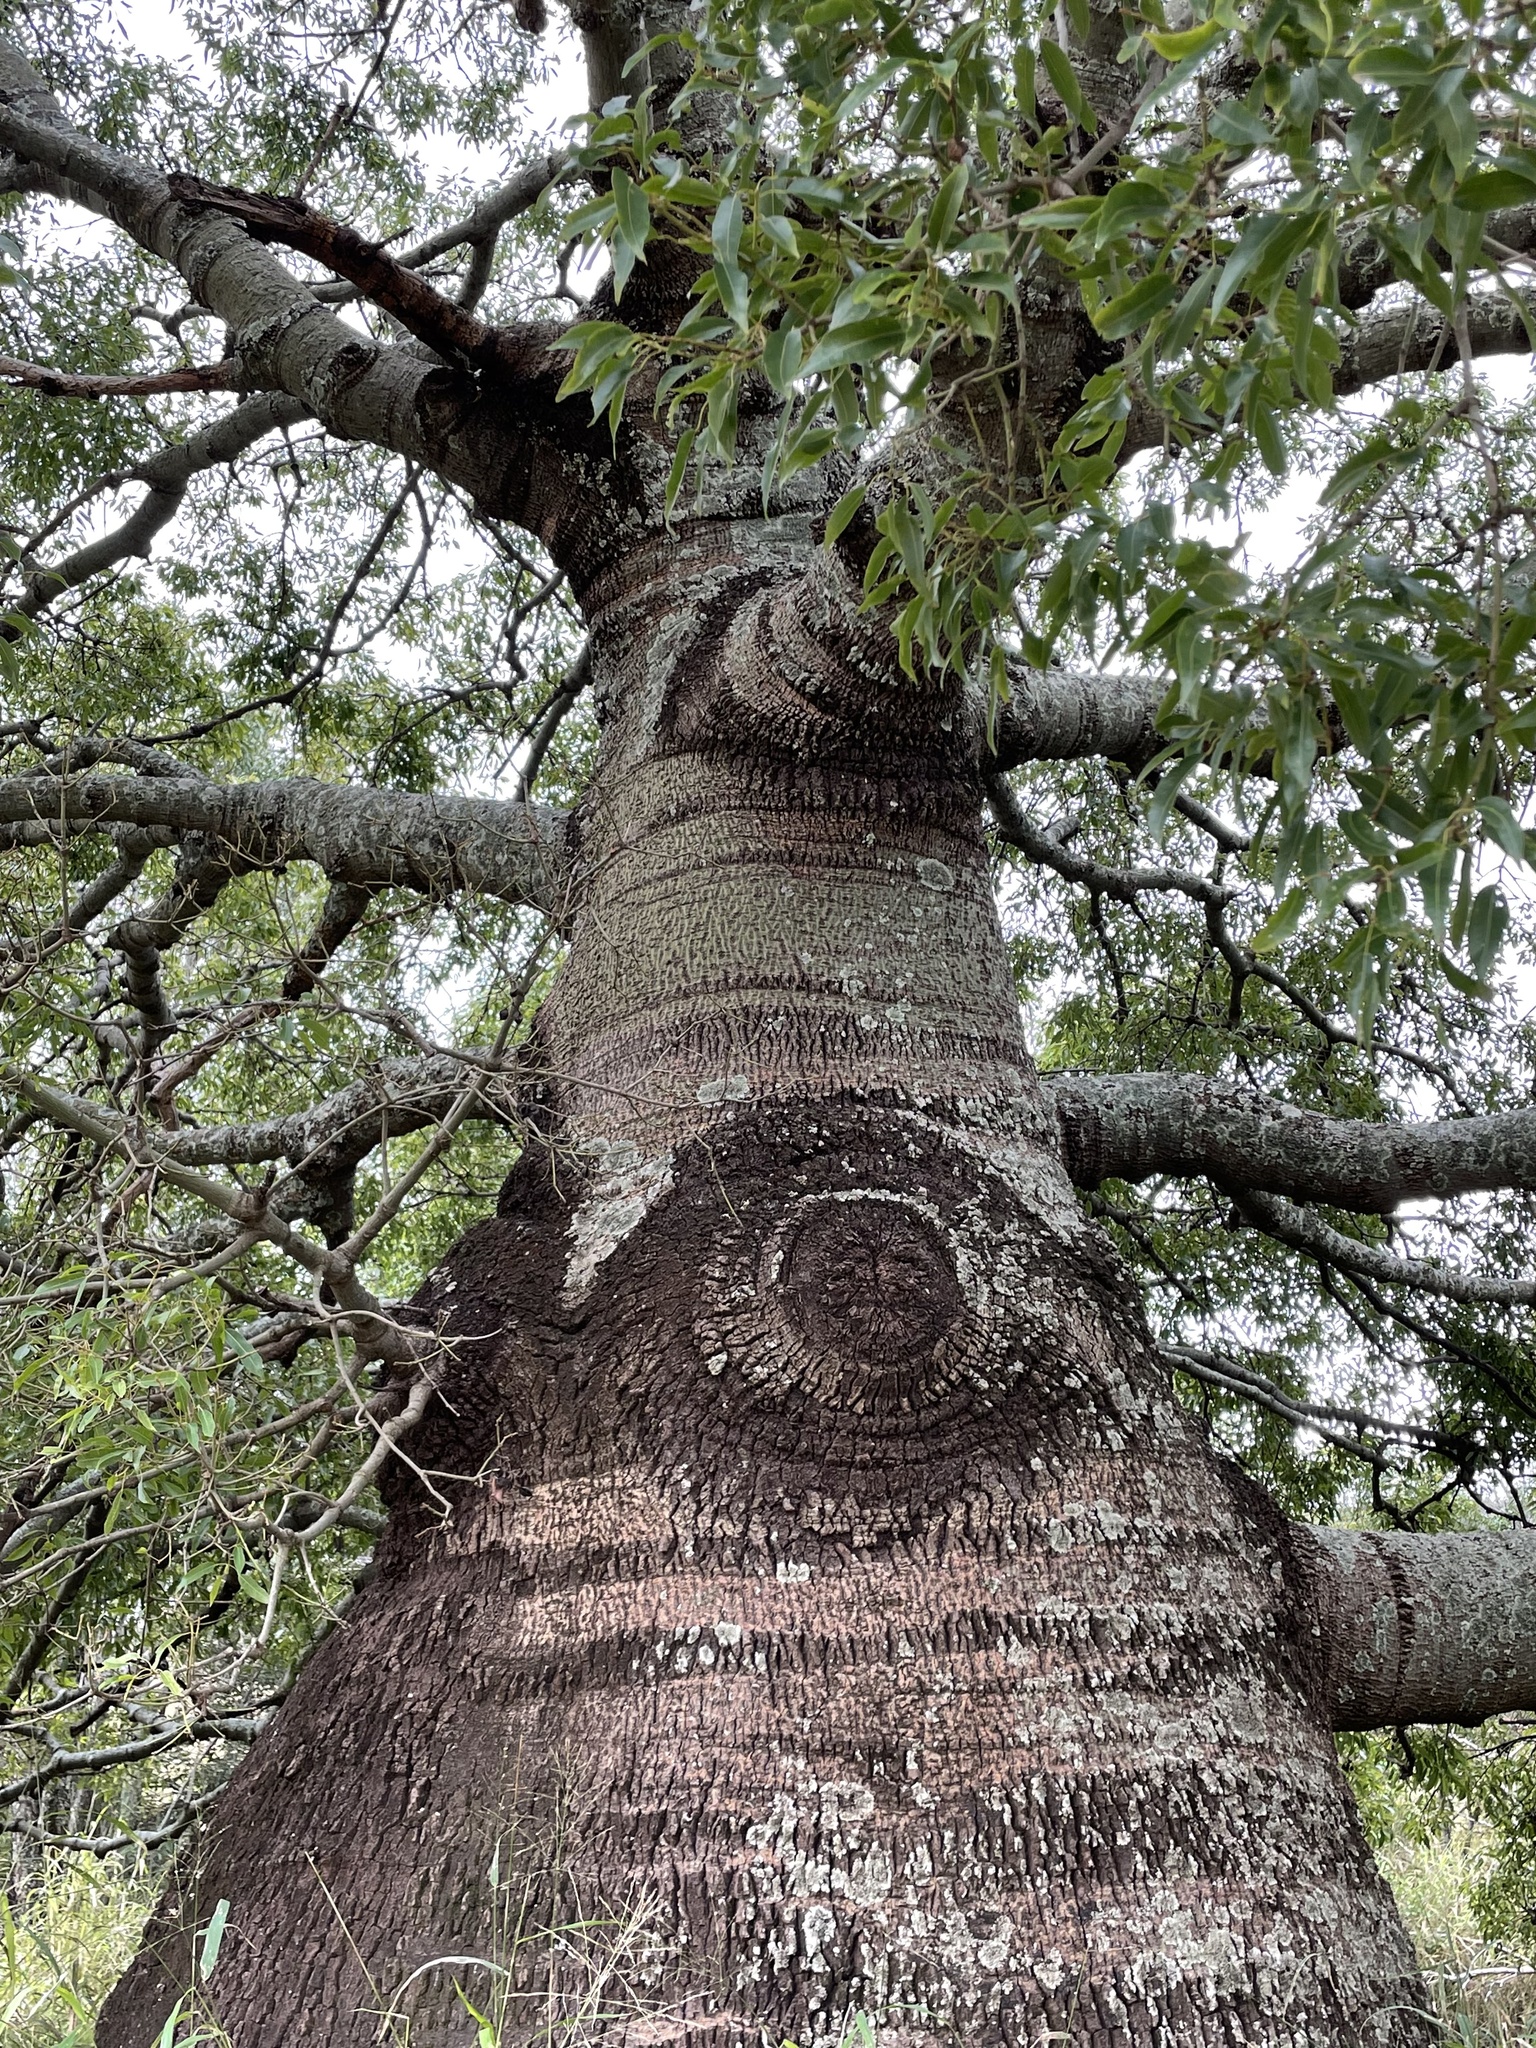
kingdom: Plantae
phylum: Tracheophyta
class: Magnoliopsida
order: Malvales
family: Malvaceae
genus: Brachychiton
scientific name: Brachychiton rupestris
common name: Queensland bottletree
